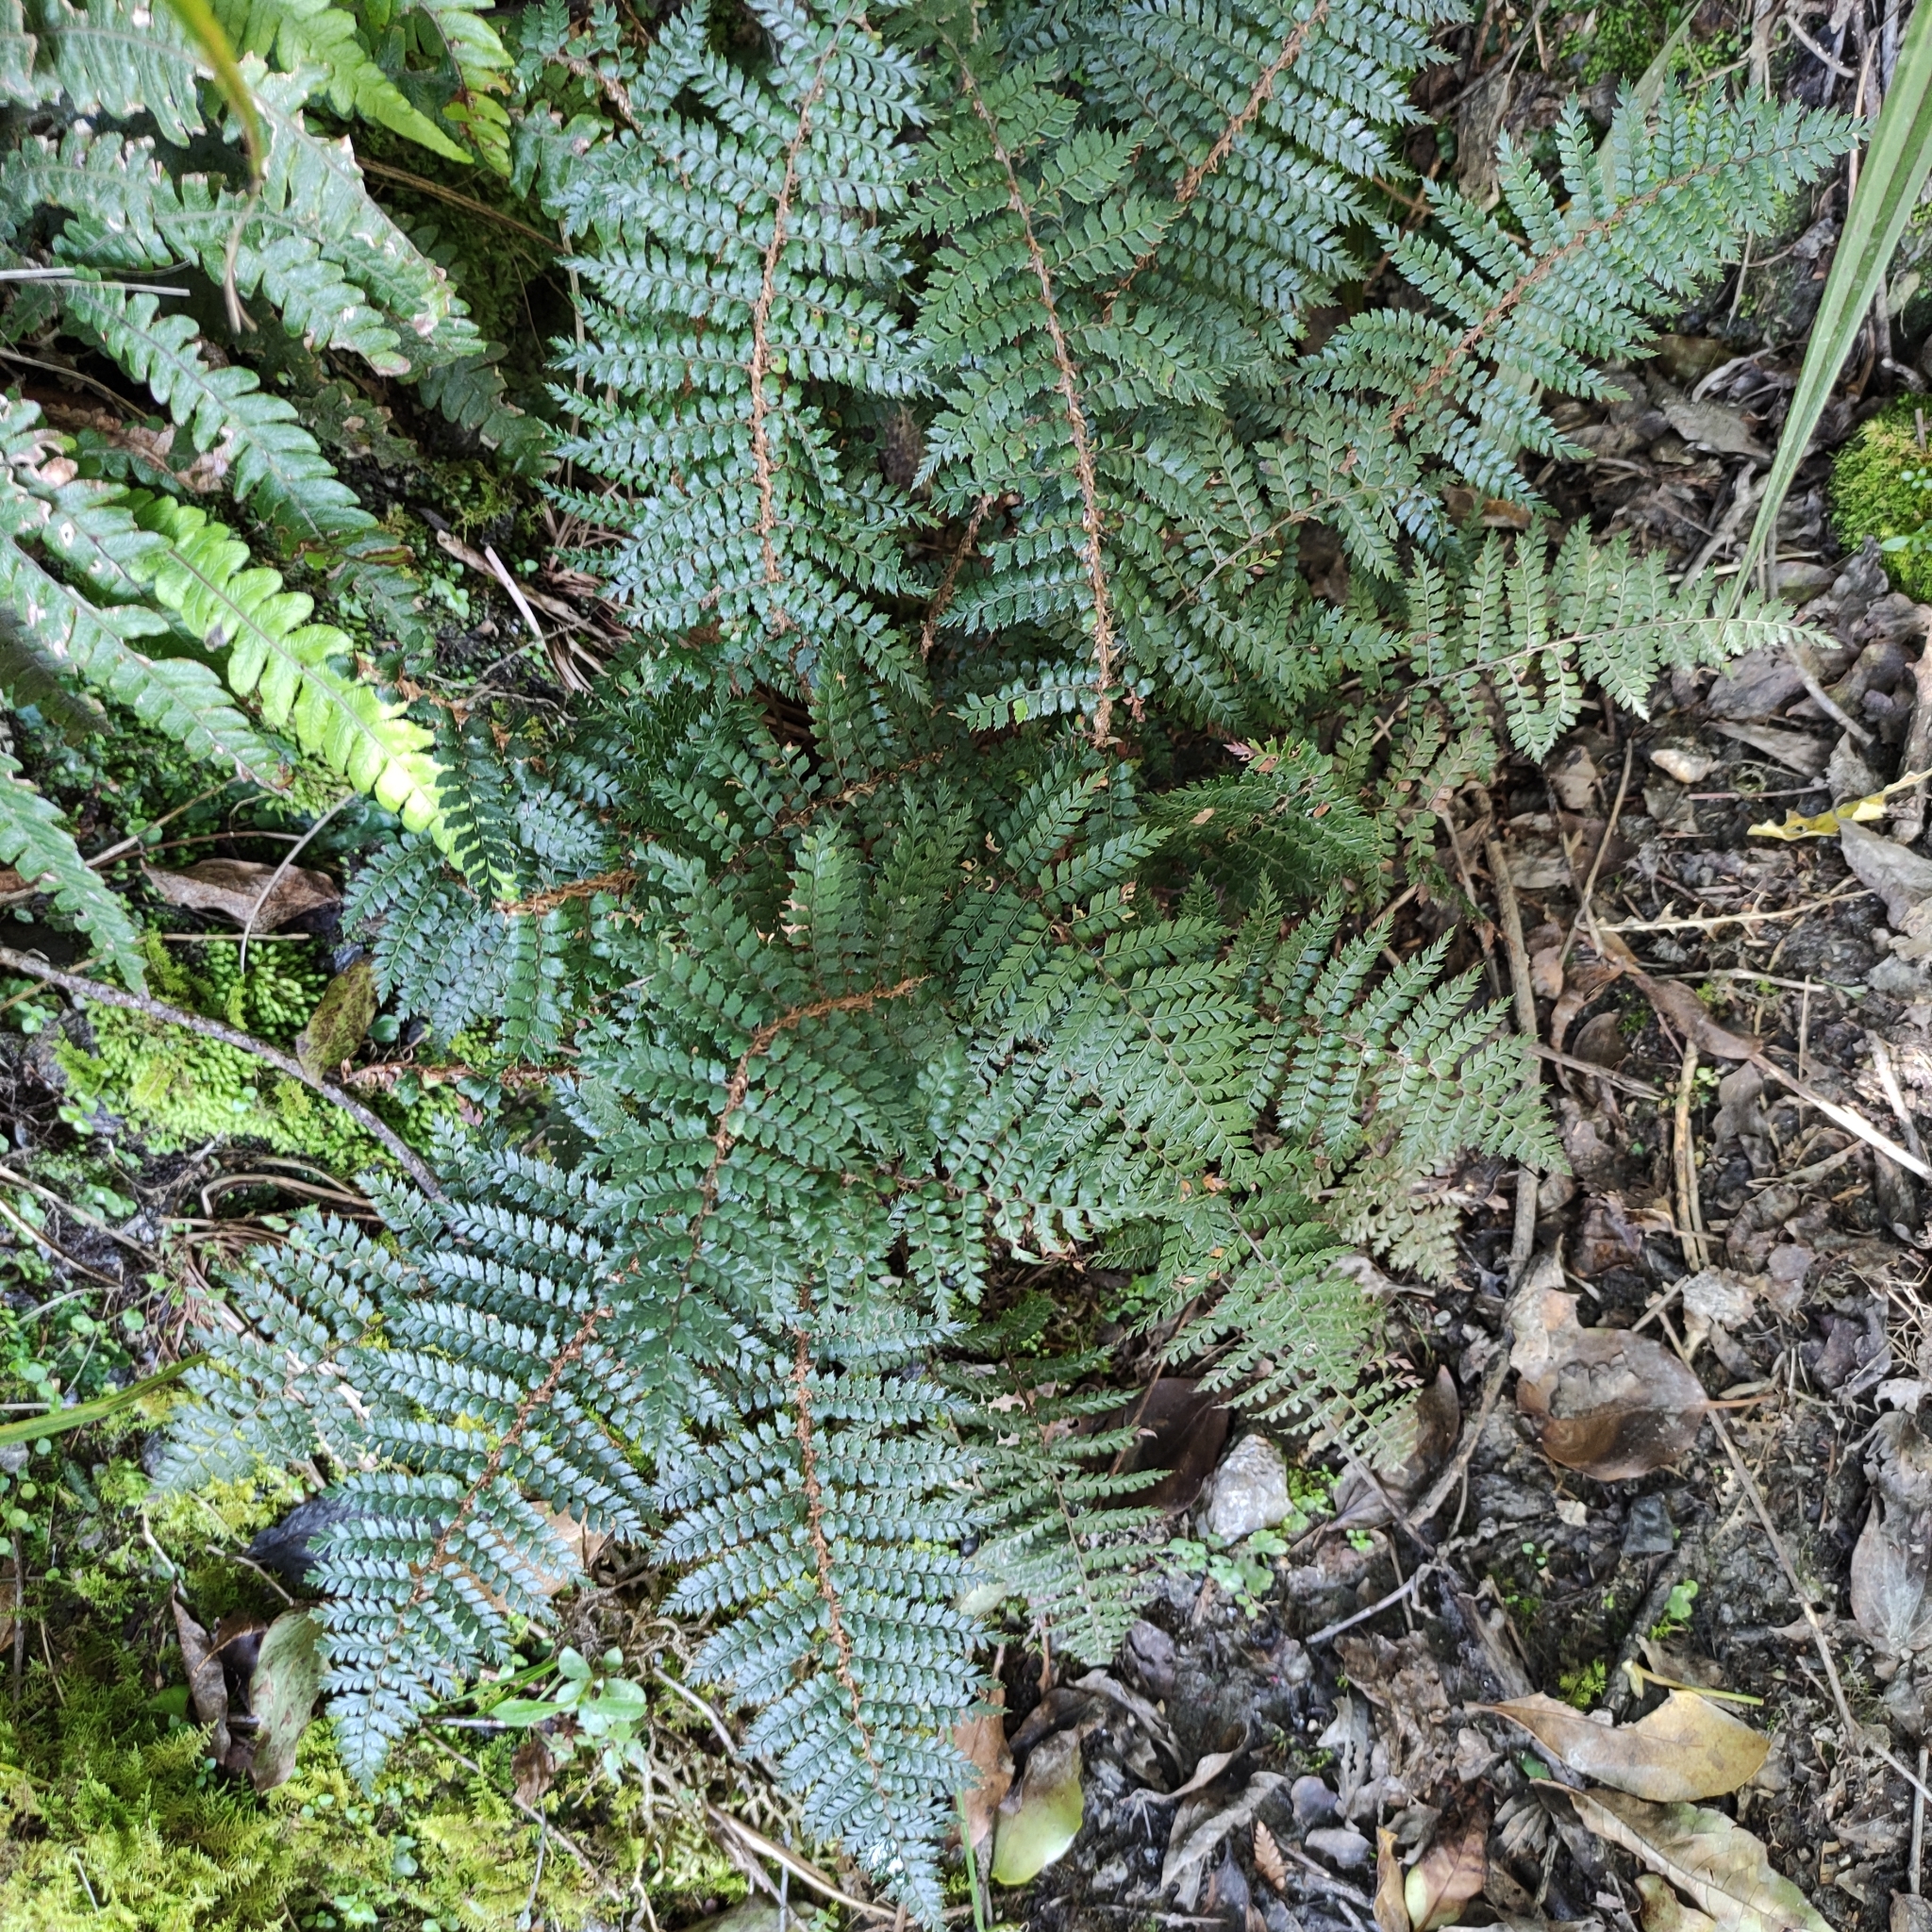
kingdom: Plantae
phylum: Tracheophyta
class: Polypodiopsida
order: Polypodiales
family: Dryopteridaceae
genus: Polystichum
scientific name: Polystichum vestitum
